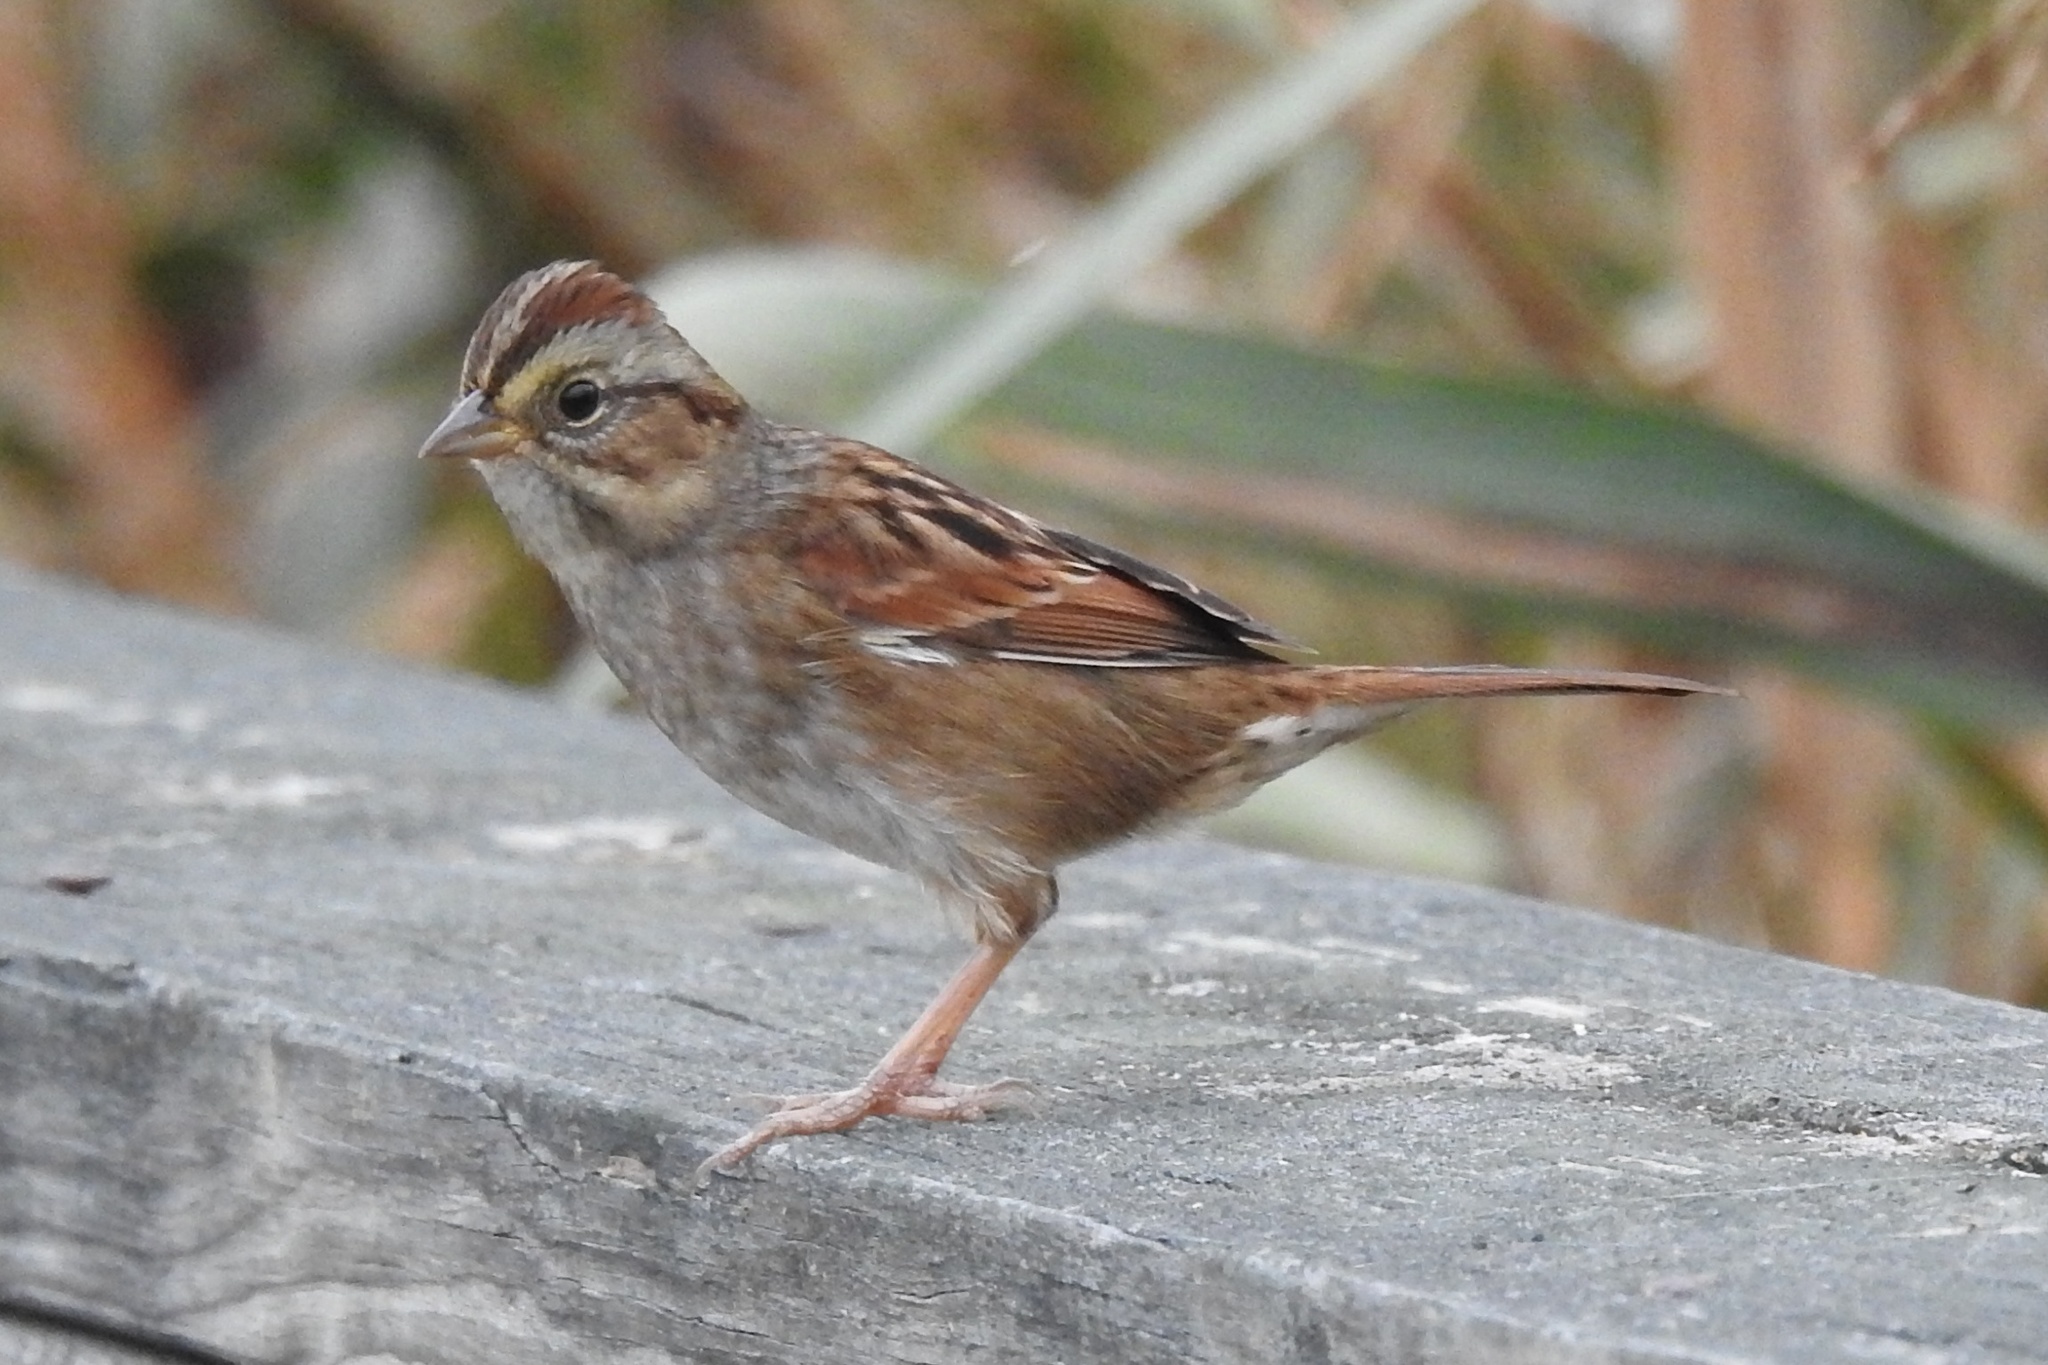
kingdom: Animalia
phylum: Chordata
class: Aves
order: Passeriformes
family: Passerellidae
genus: Melospiza
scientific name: Melospiza georgiana
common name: Swamp sparrow
